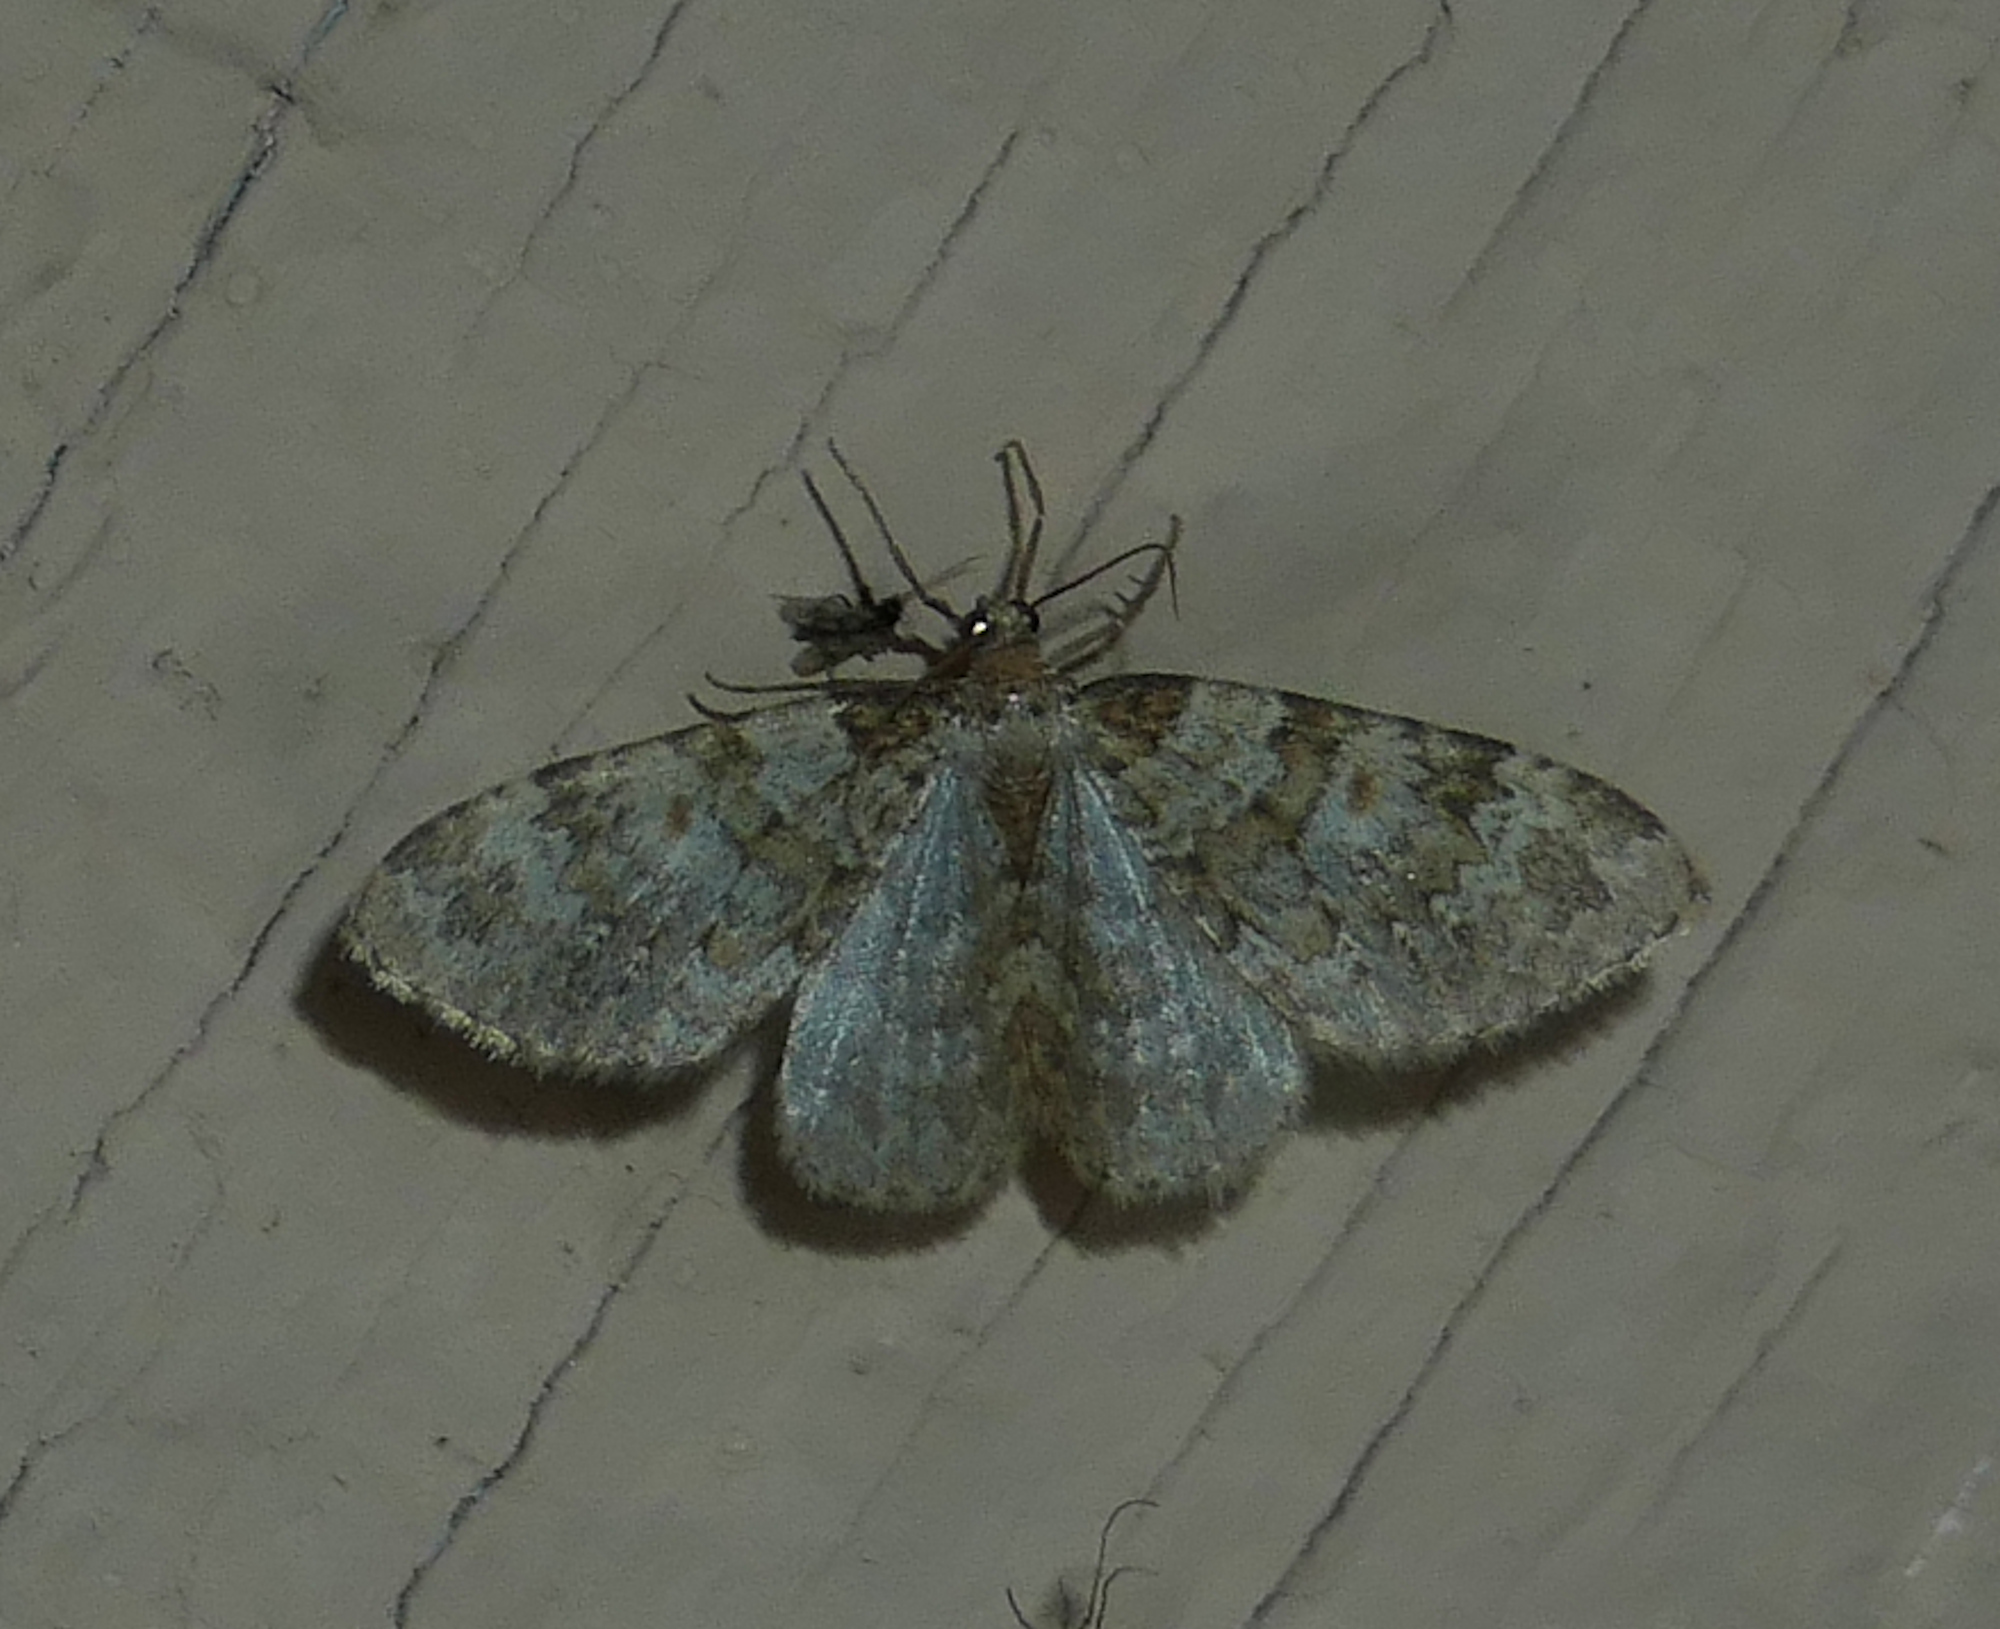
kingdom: Animalia
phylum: Arthropoda
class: Insecta
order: Lepidoptera
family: Geometridae
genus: Zenophleps
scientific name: Zenophleps obscurata
